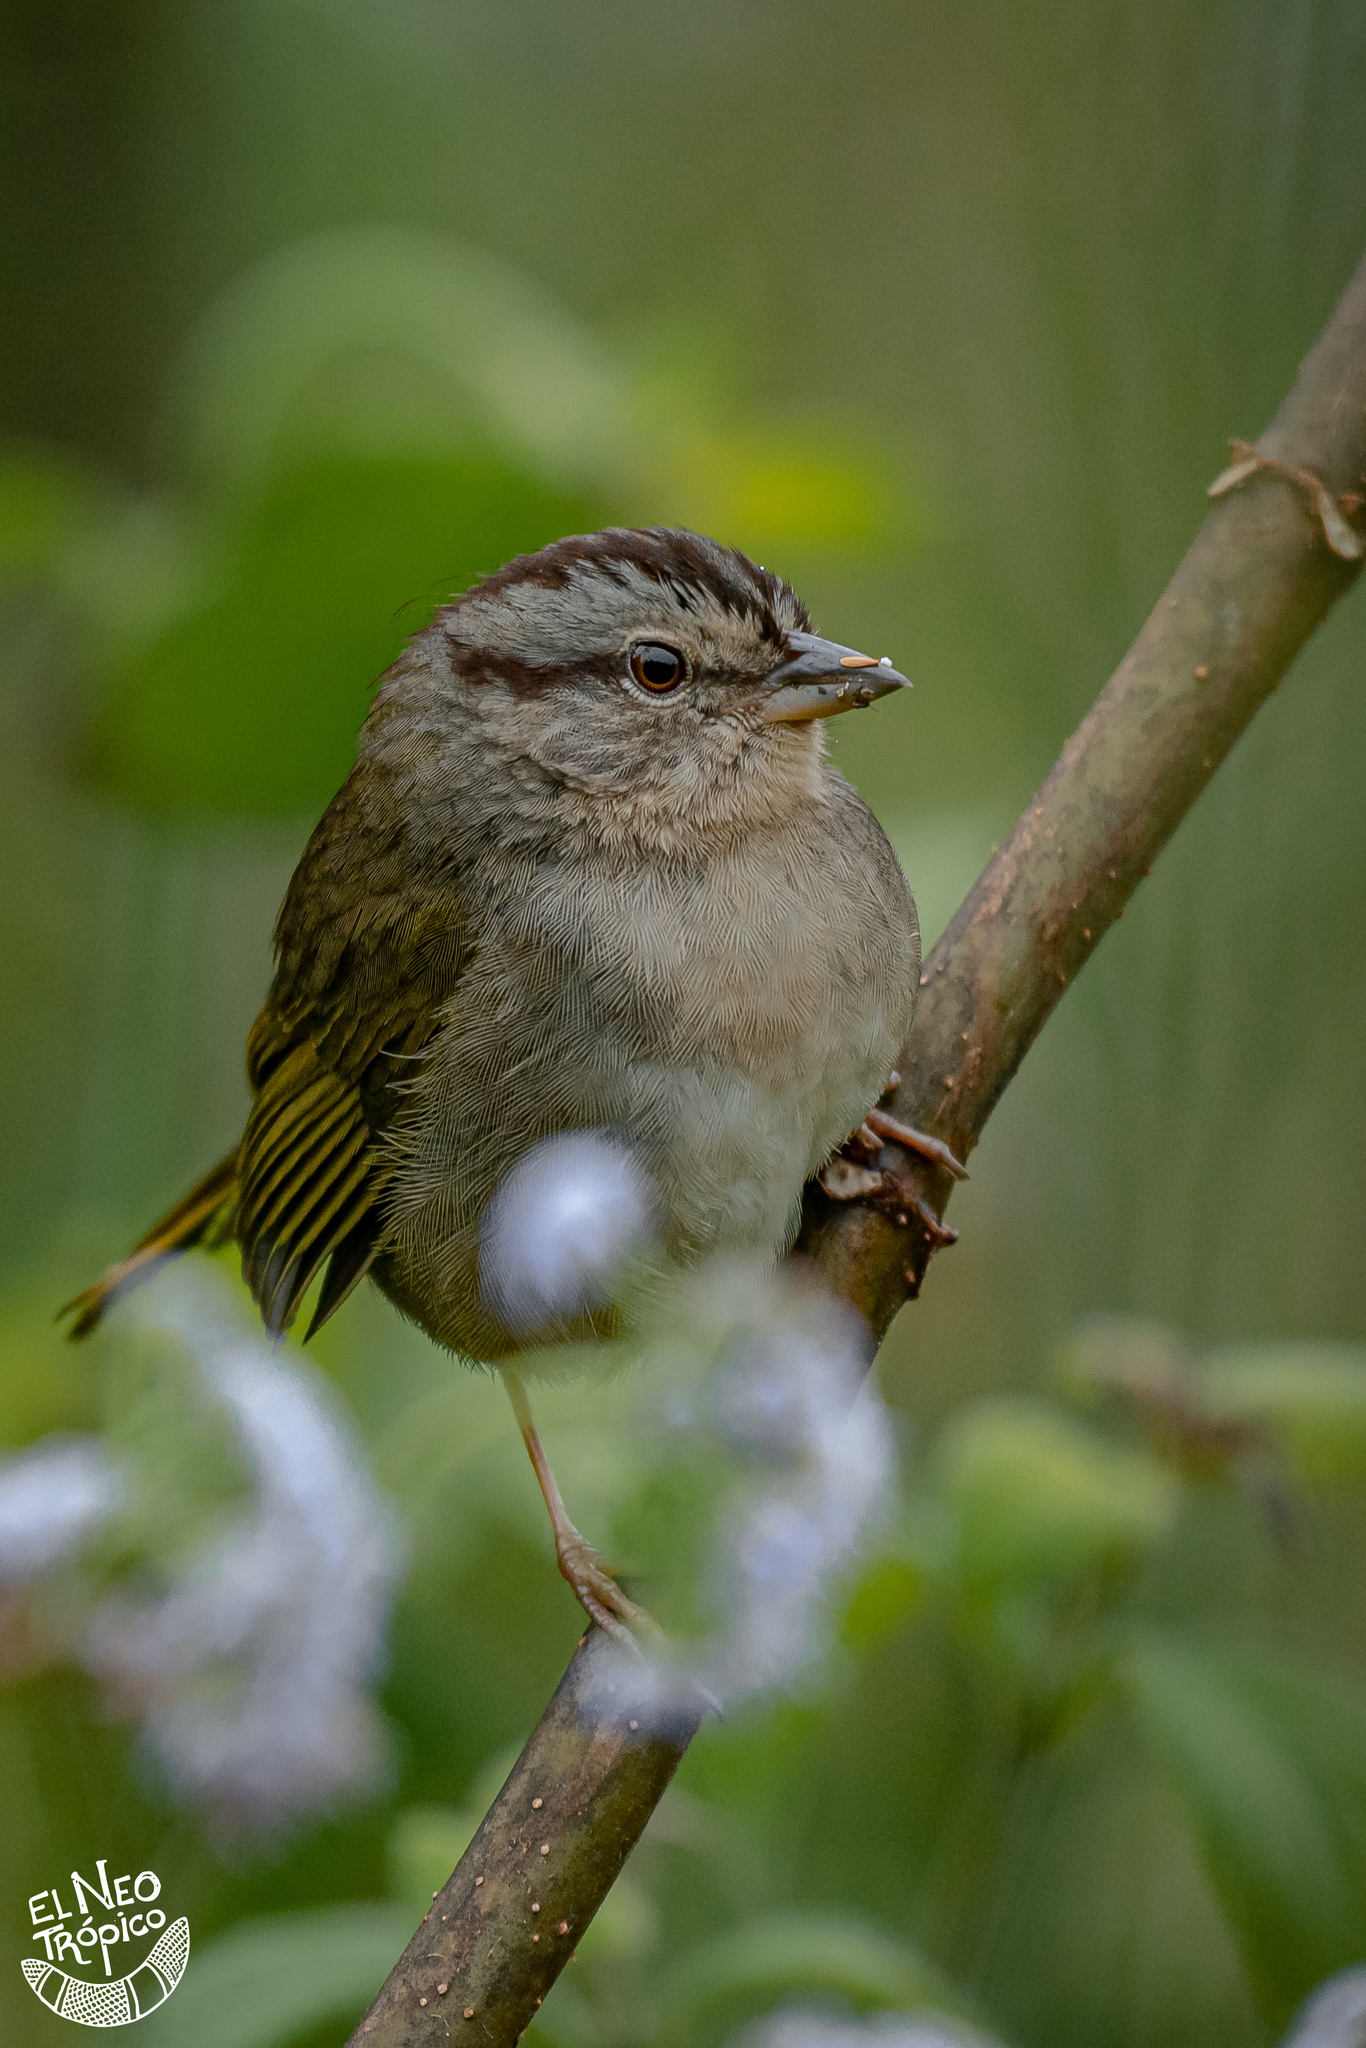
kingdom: Animalia
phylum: Chordata
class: Aves
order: Passeriformes
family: Passerellidae
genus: Arremonops
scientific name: Arremonops rufivirgatus
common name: Olive sparrow
